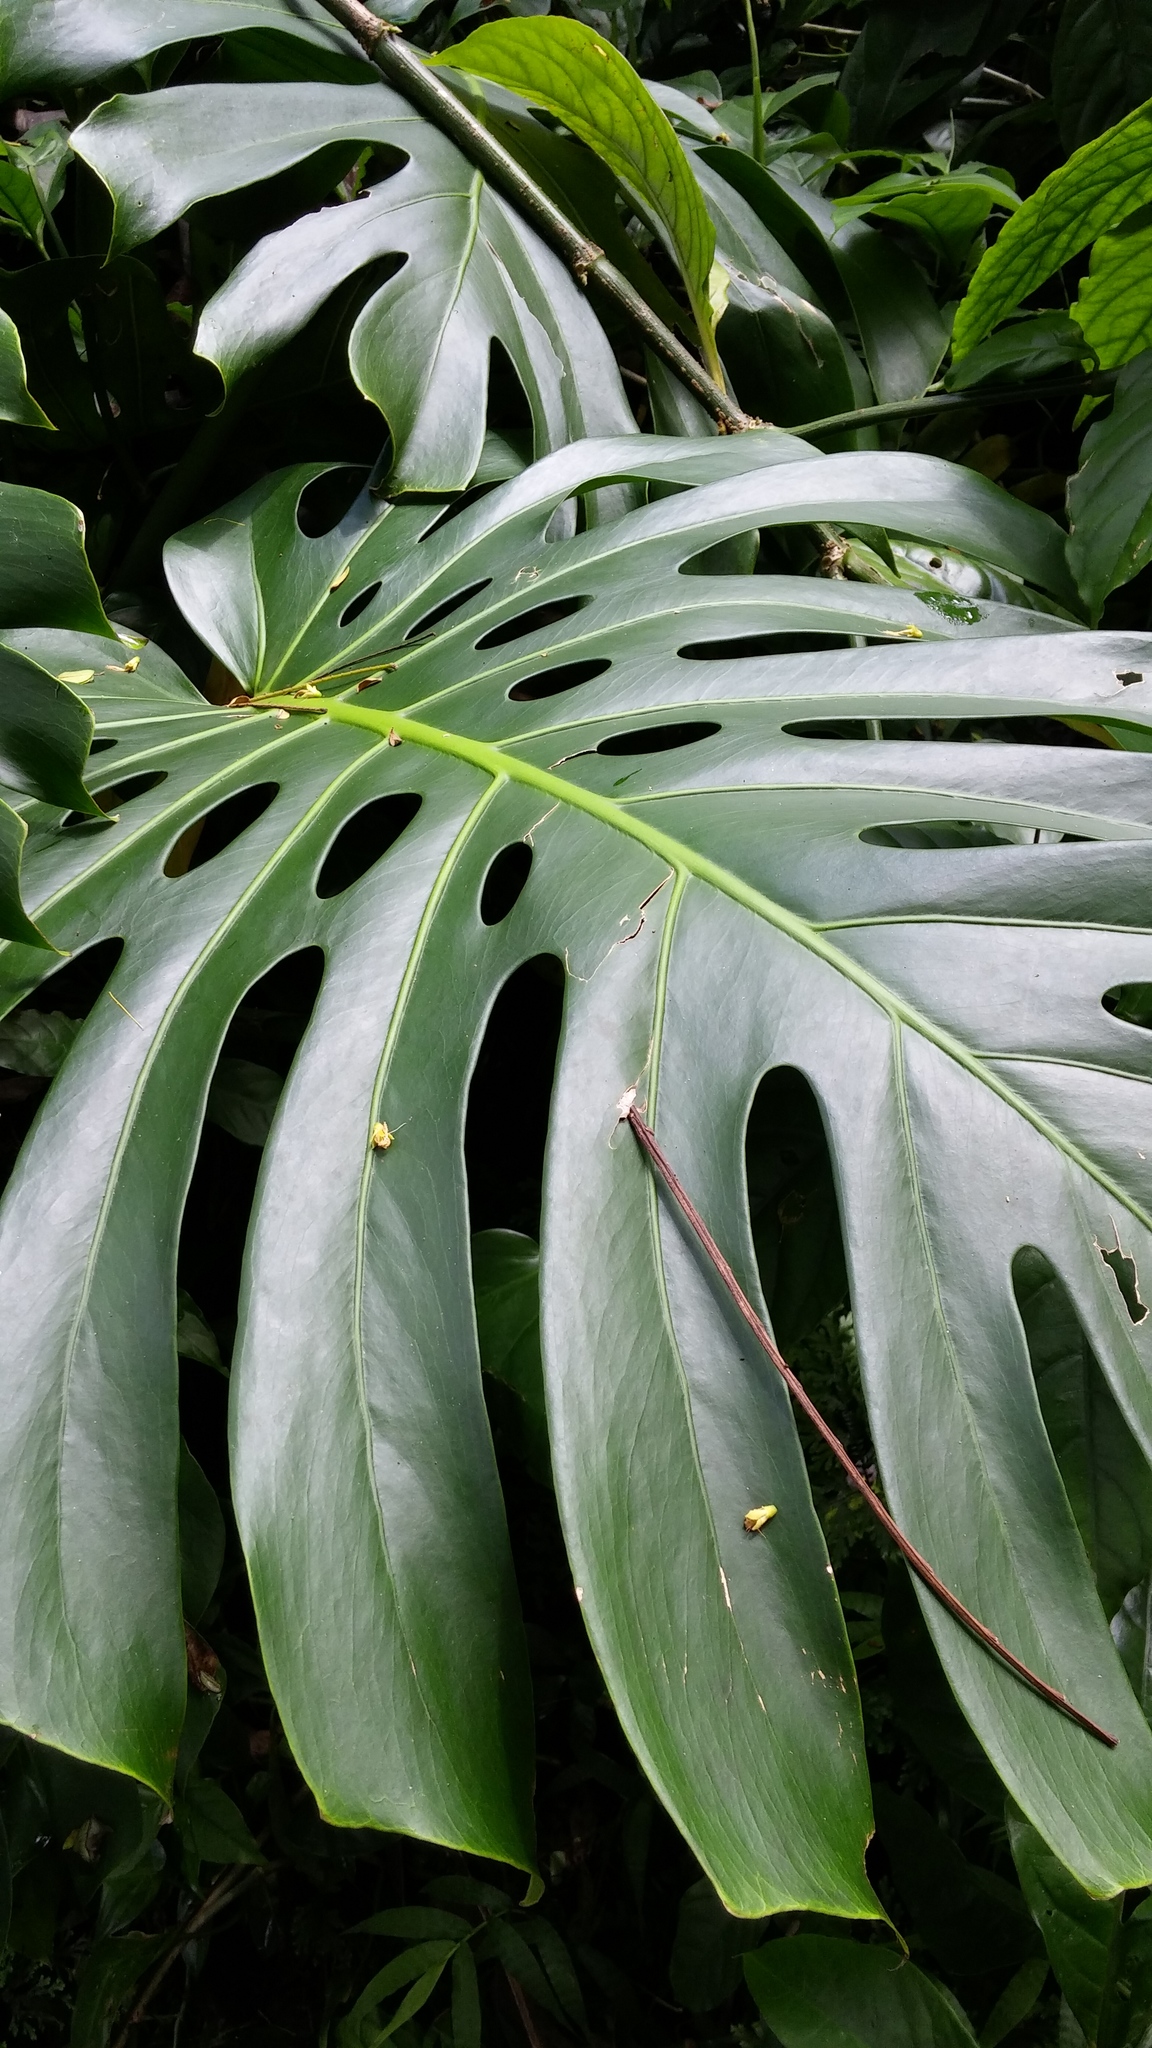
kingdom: Plantae
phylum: Tracheophyta
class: Liliopsida
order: Alismatales
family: Araceae
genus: Monstera
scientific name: Monstera deliciosa
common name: Cut-leaf-philodendron
